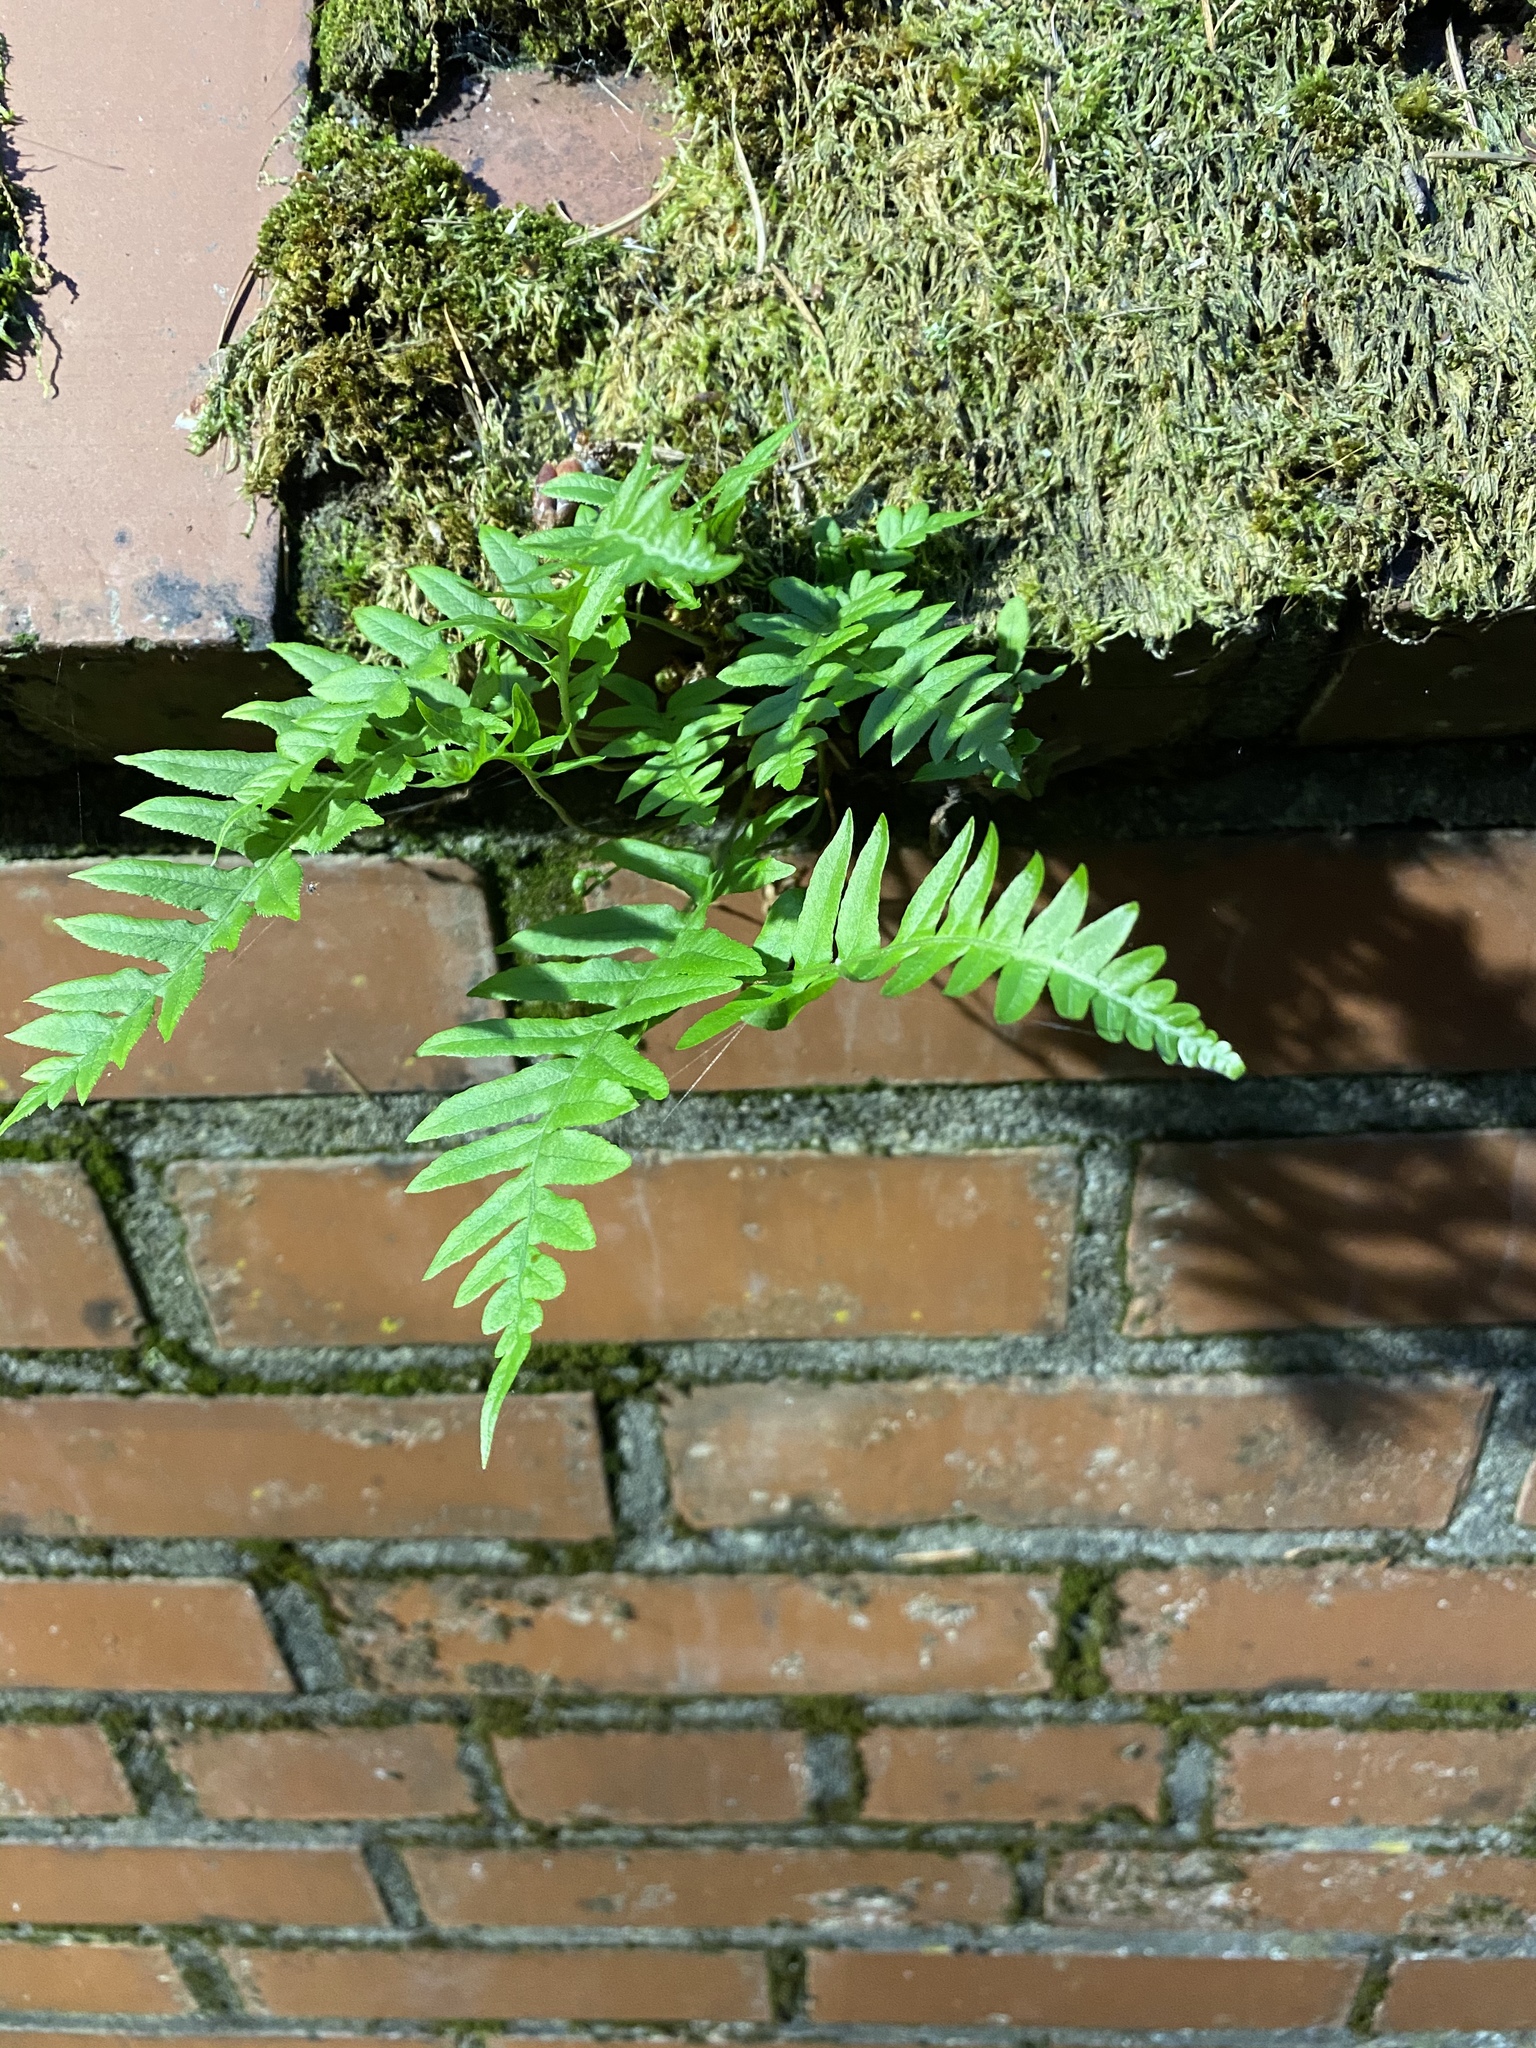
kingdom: Plantae
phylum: Tracheophyta
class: Polypodiopsida
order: Polypodiales
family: Polypodiaceae
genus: Polypodium
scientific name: Polypodium glycyrrhiza
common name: Licorice fern
